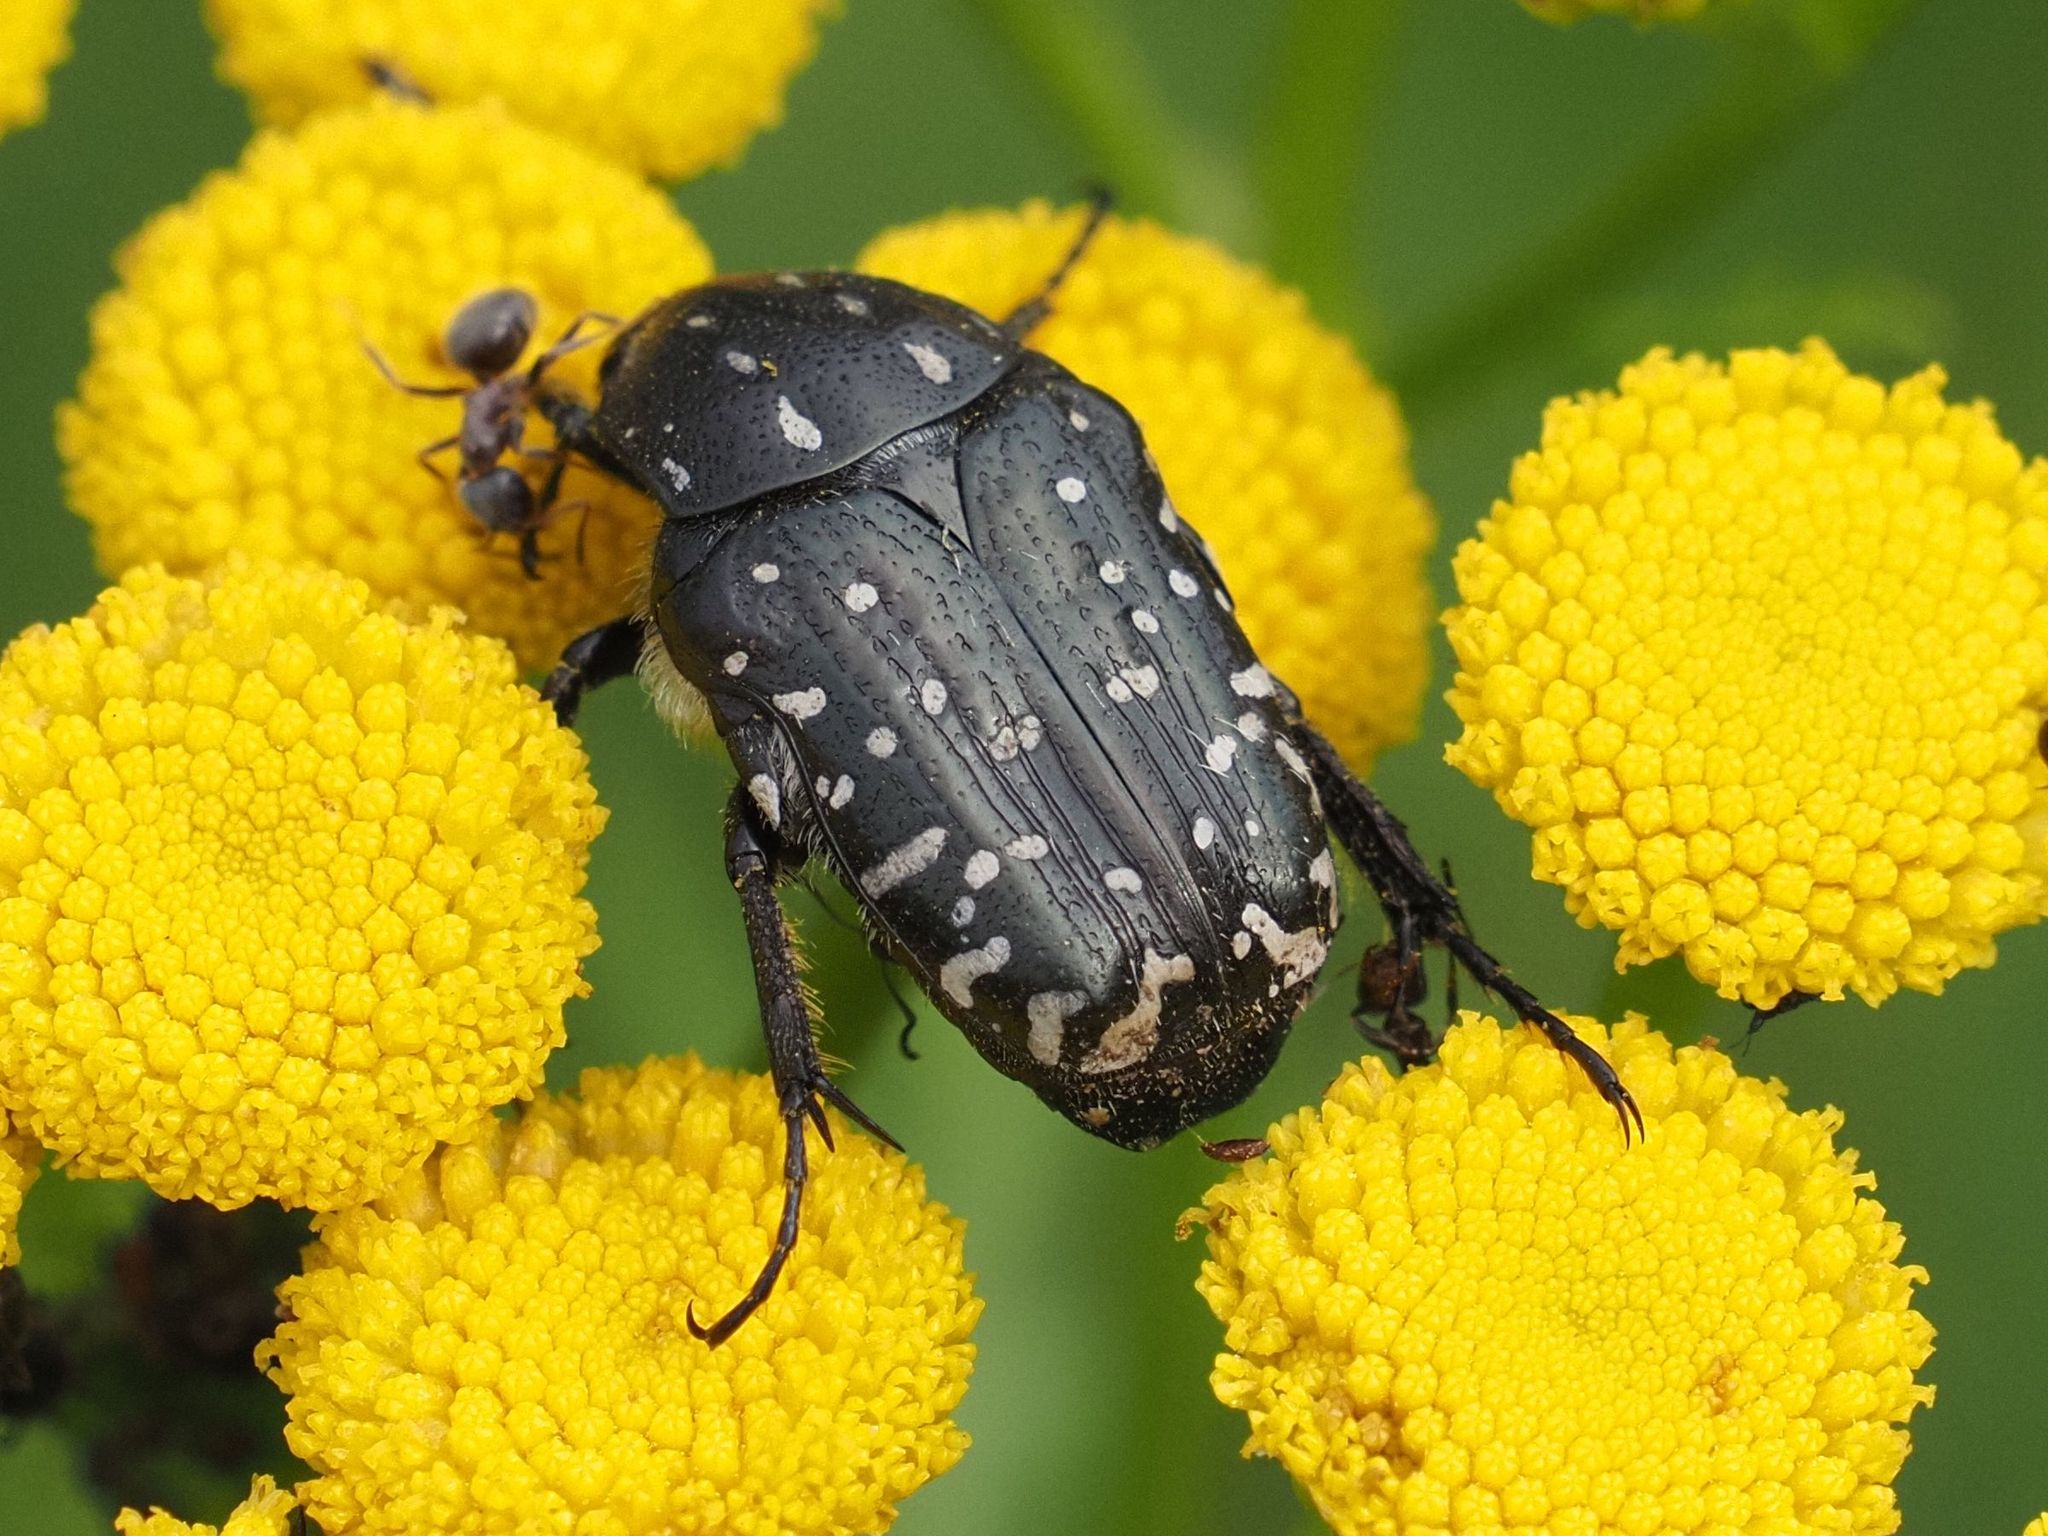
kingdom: Animalia
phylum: Arthropoda
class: Insecta
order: Coleoptera
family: Scarabaeidae
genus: Oxythyrea
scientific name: Oxythyrea funesta
